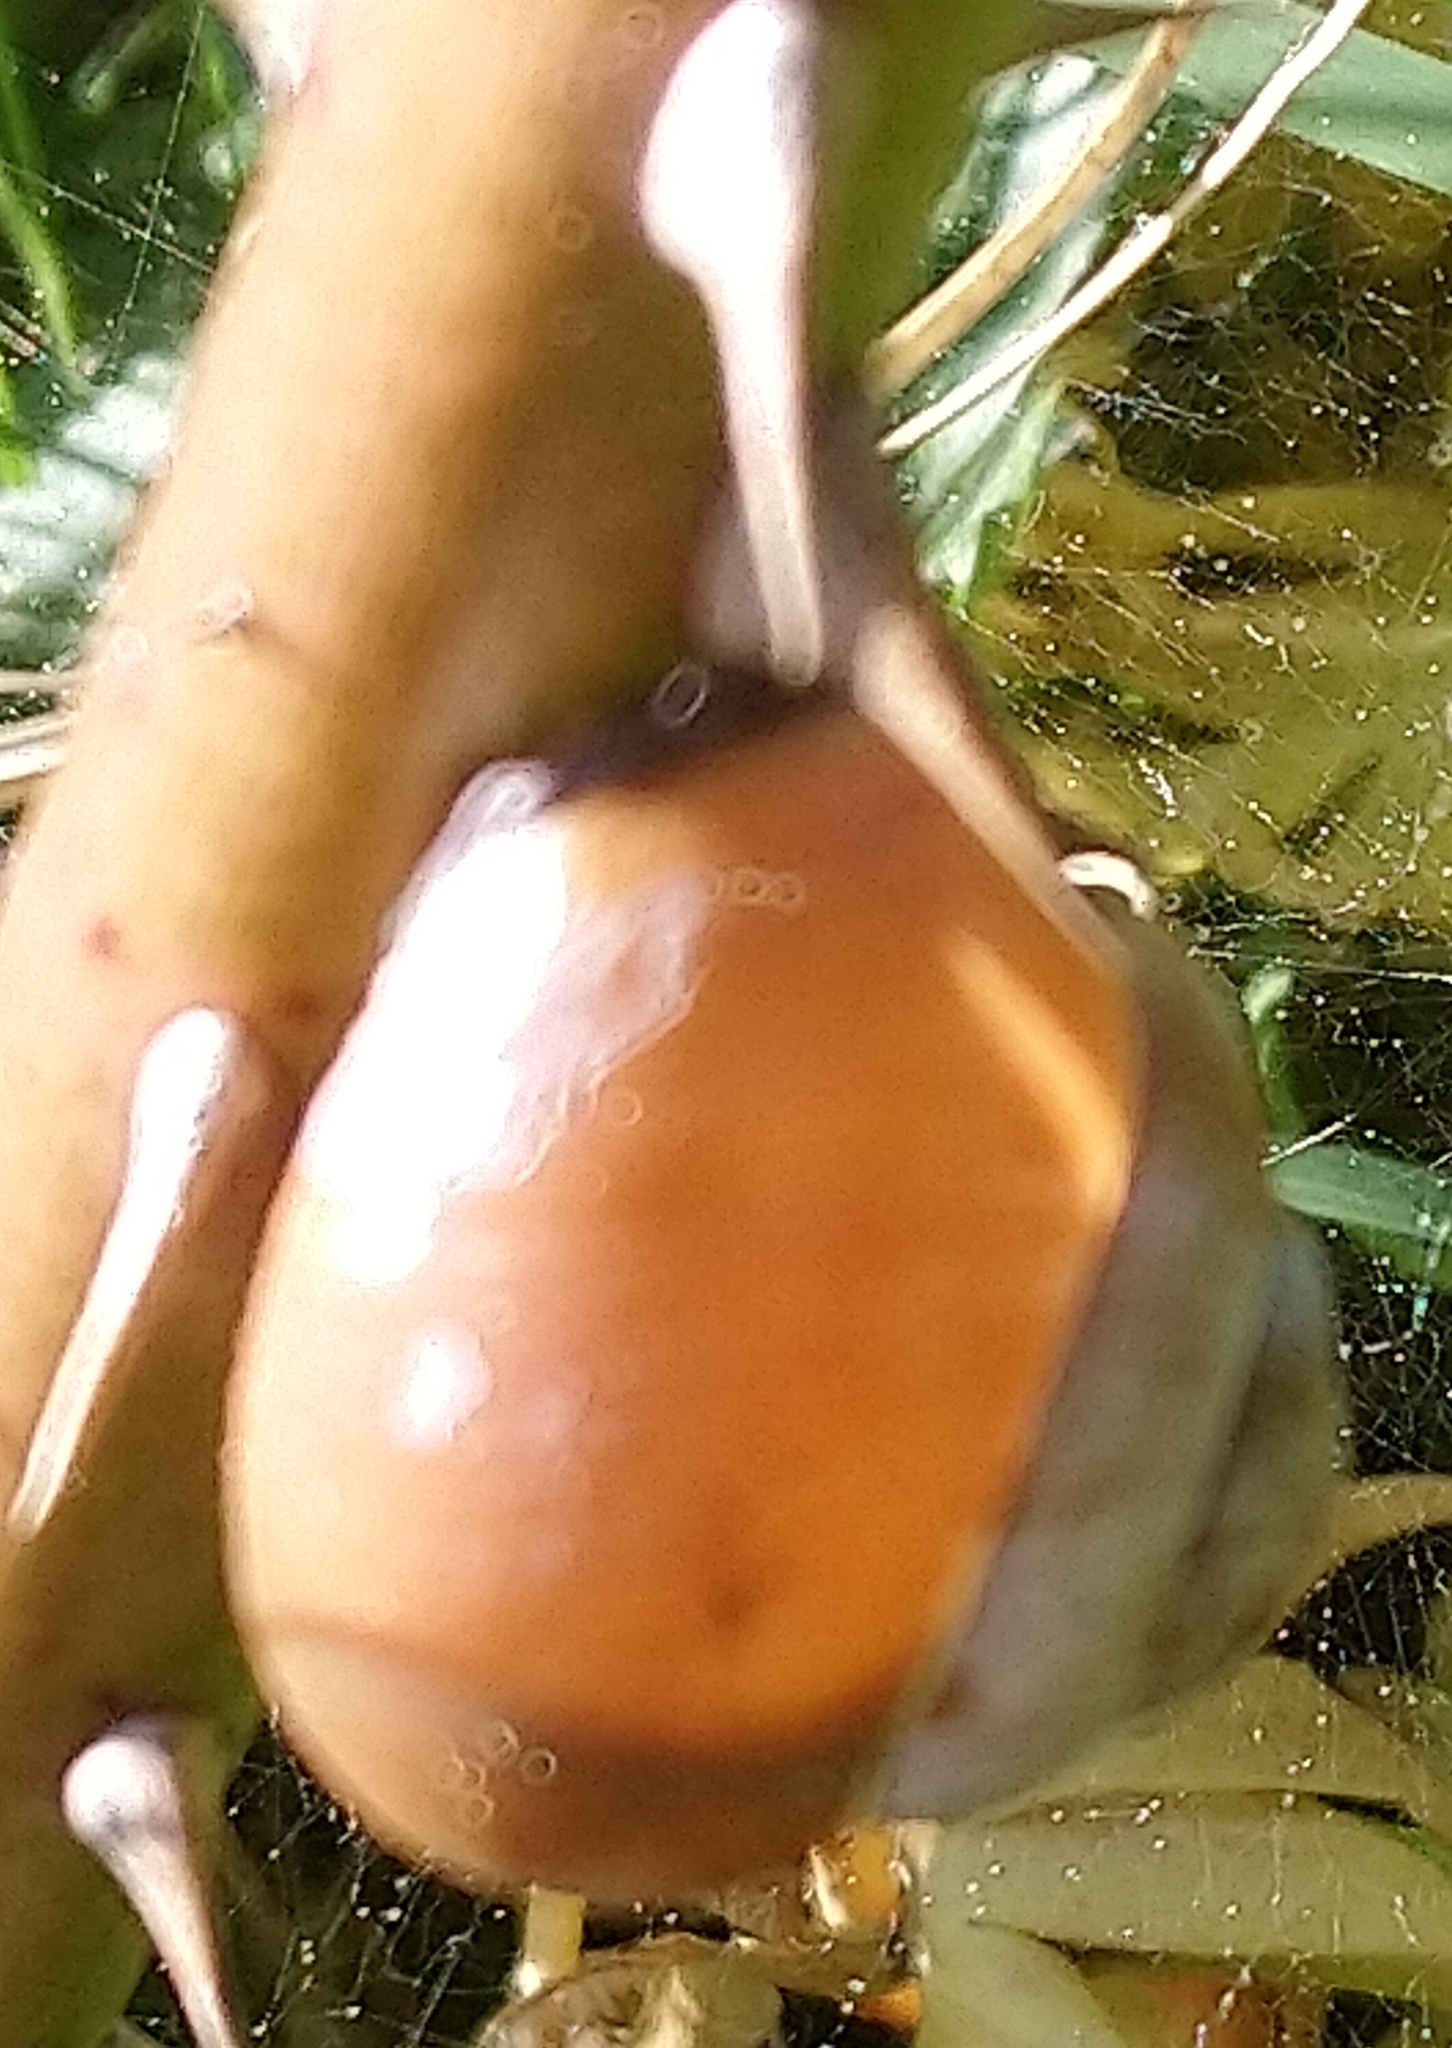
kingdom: Animalia
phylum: Mollusca
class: Gastropoda
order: Stylommatophora
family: Helicidae
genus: Cepaea
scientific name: Cepaea nemoralis
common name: Grovesnail
